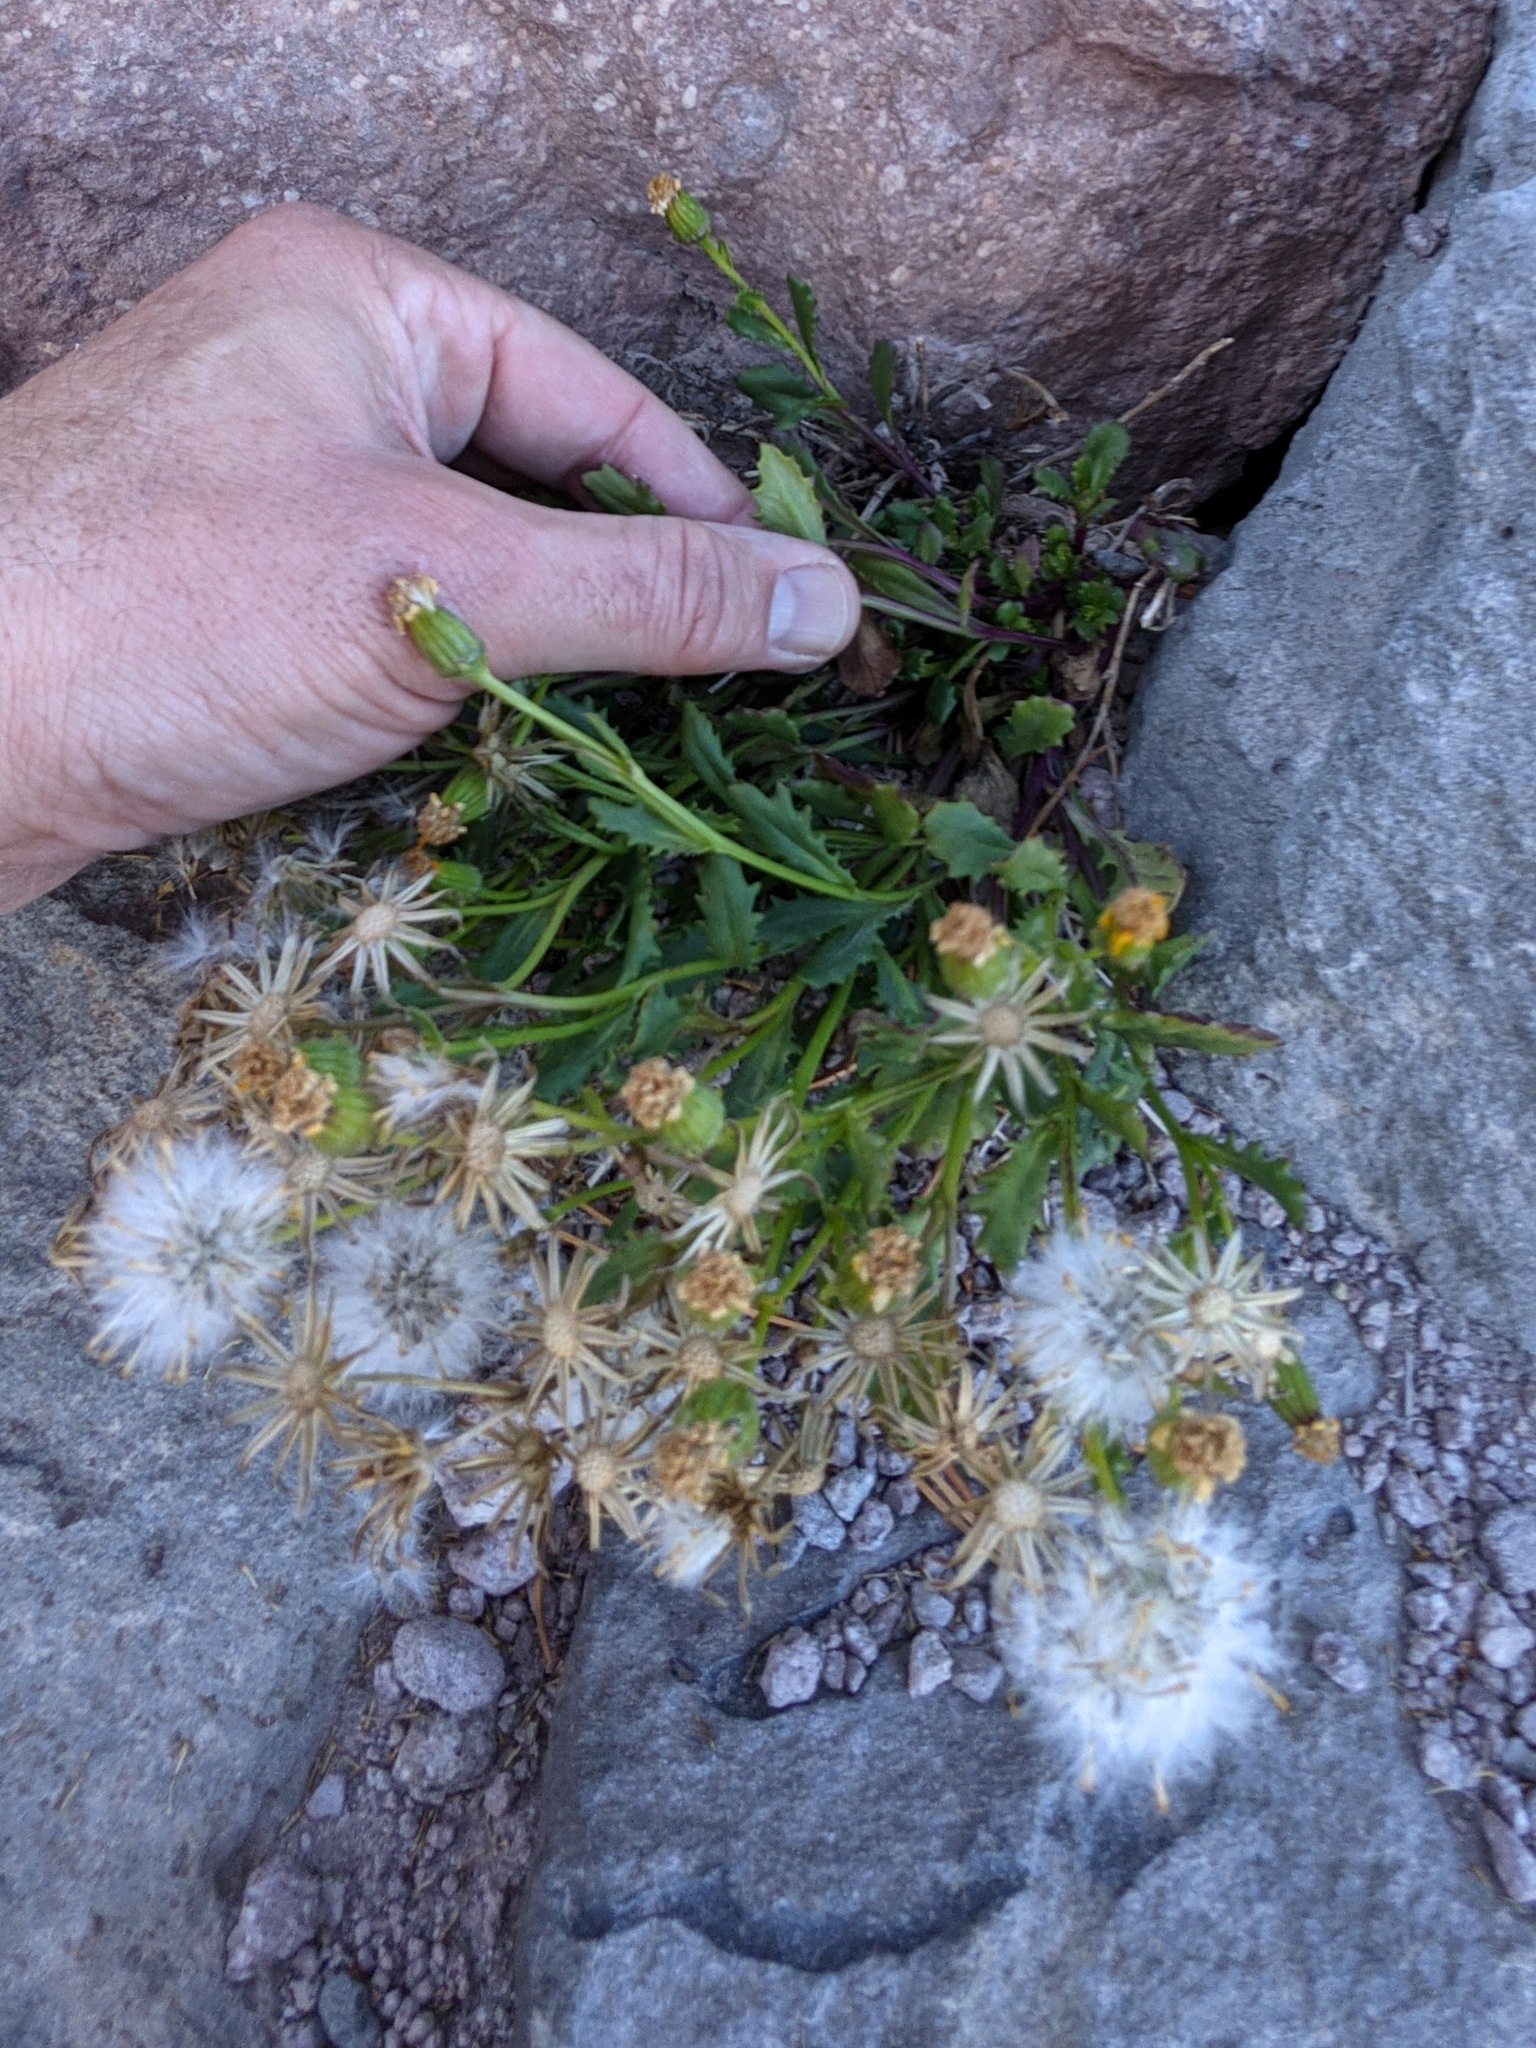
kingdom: Plantae
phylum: Tracheophyta
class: Magnoliopsida
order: Asterales
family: Asteraceae
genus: Senecio
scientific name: Senecio fremontii
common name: Fremont's groundsel
